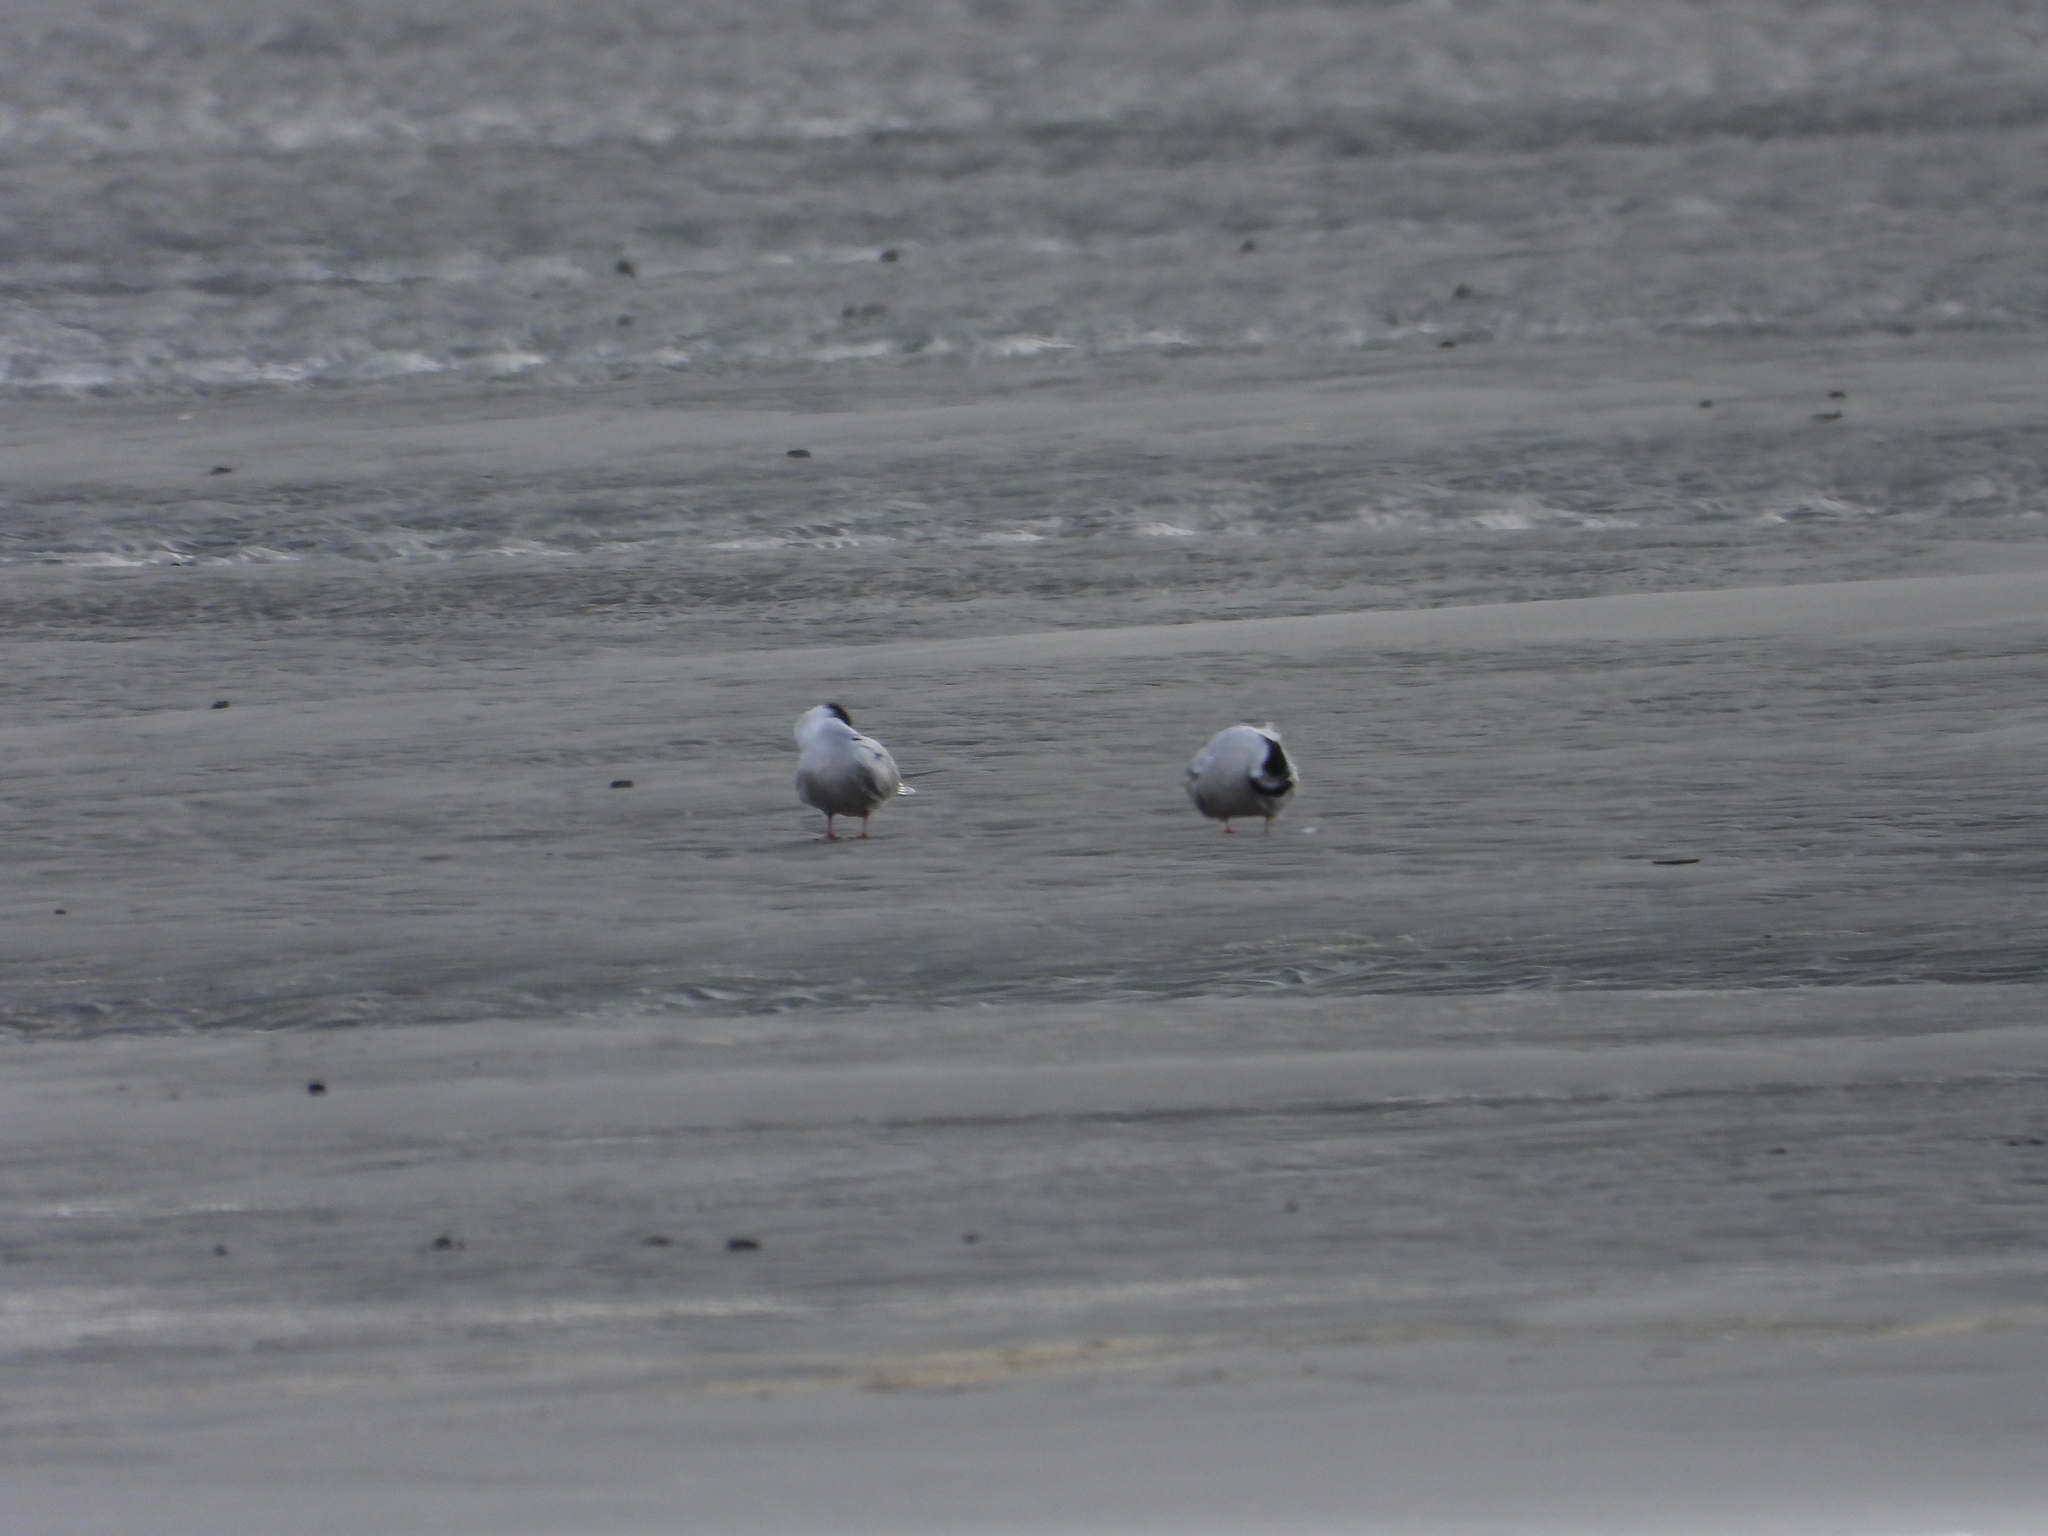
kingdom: Animalia
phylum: Chordata
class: Aves
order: Charadriiformes
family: Laridae
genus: Sterna
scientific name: Sterna hirundo
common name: Common tern
